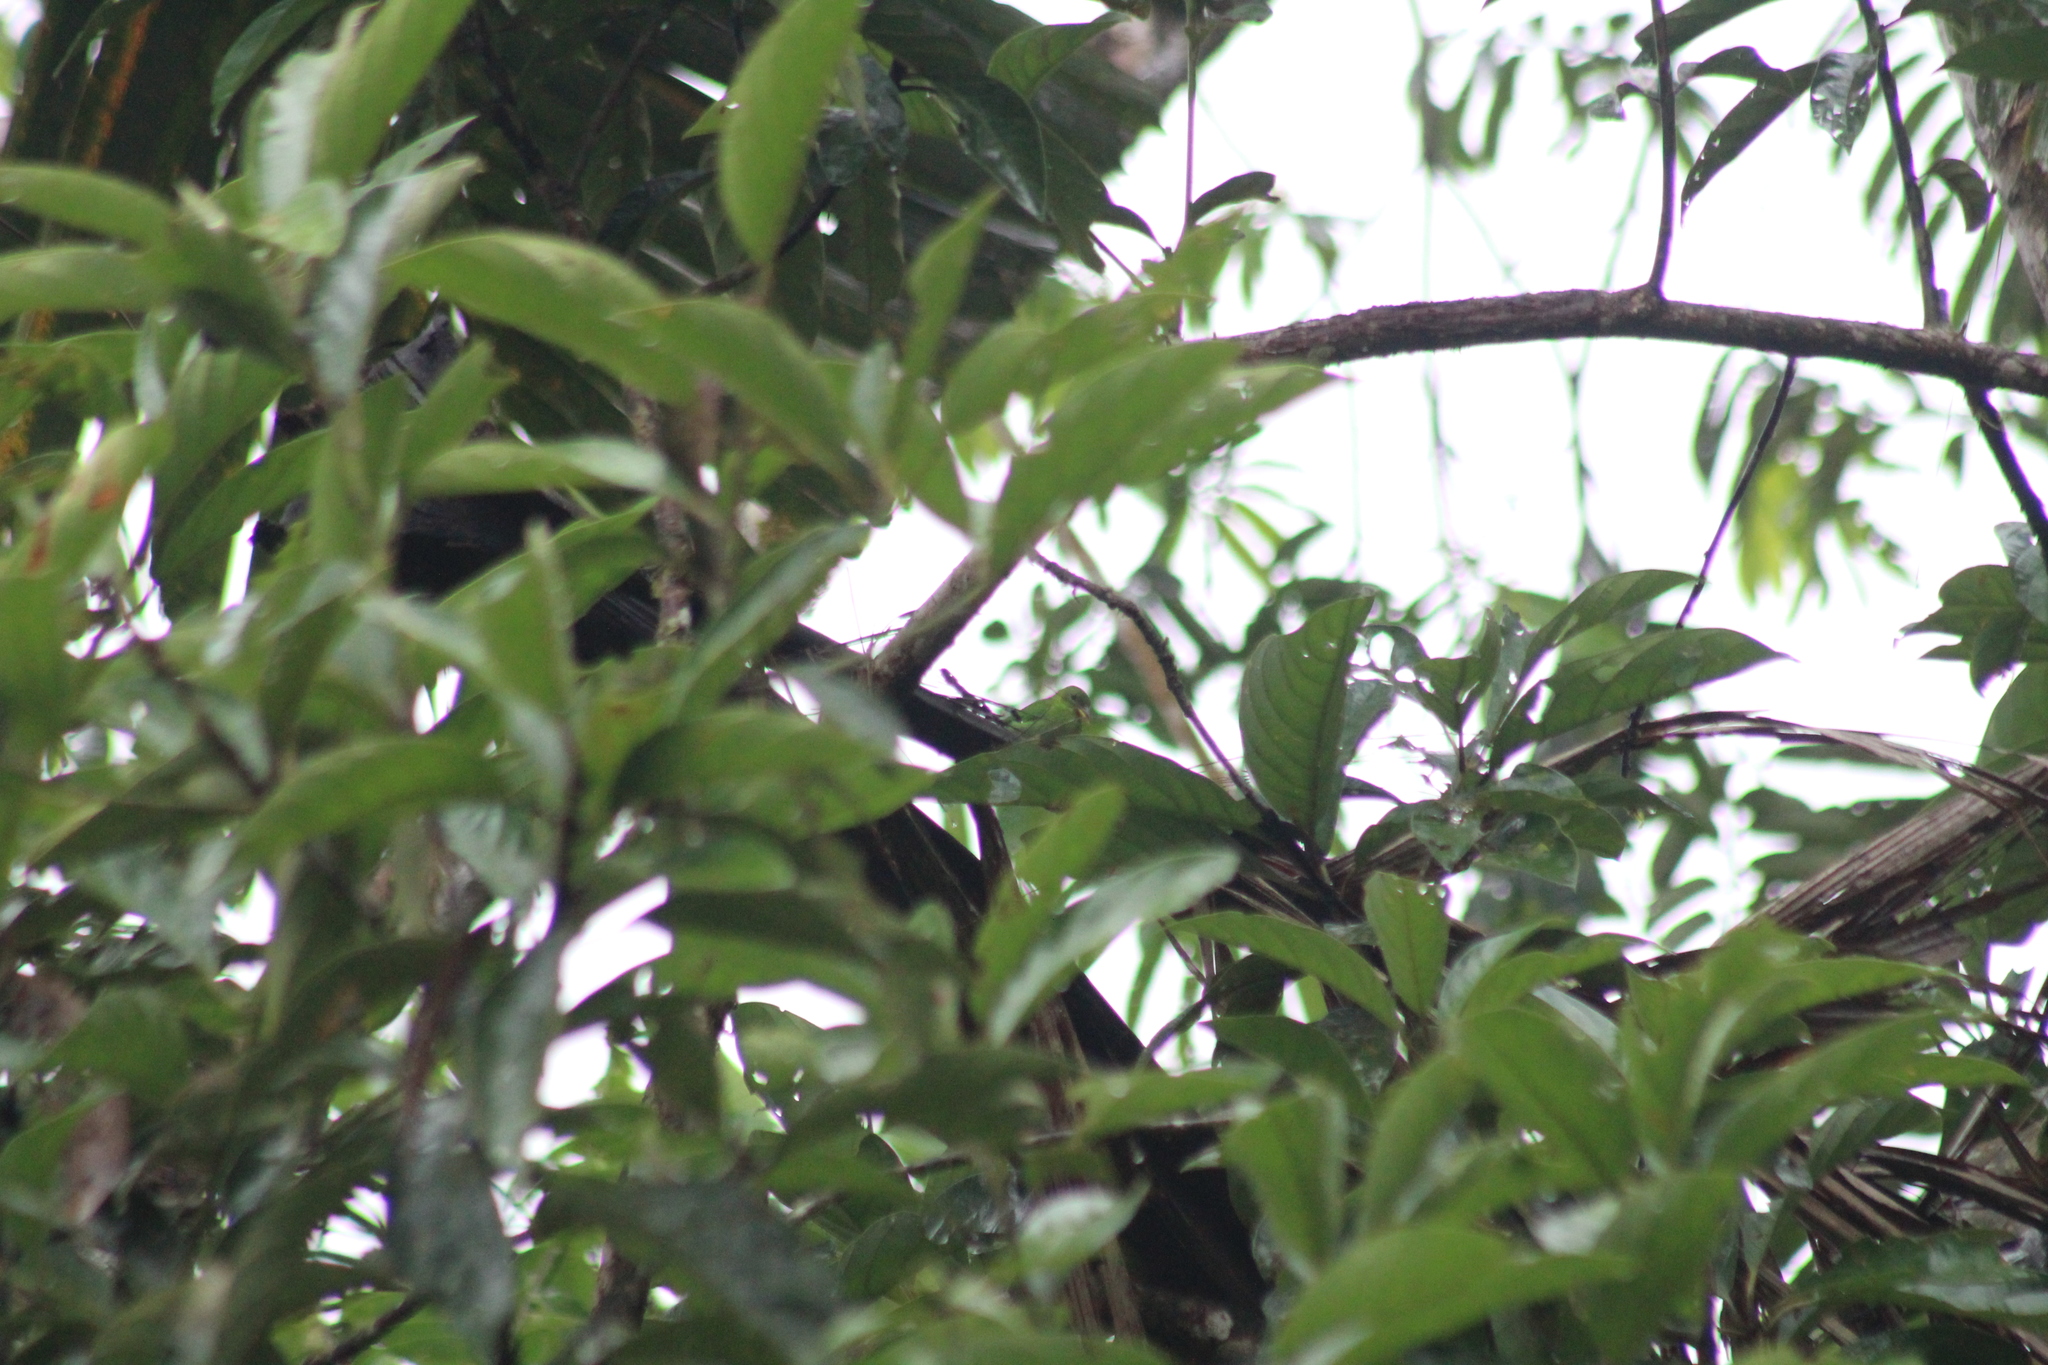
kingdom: Animalia
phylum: Chordata
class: Aves
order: Passeriformes
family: Thraupidae
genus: Chlorophanes
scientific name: Chlorophanes spiza
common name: Green honeycreeper
